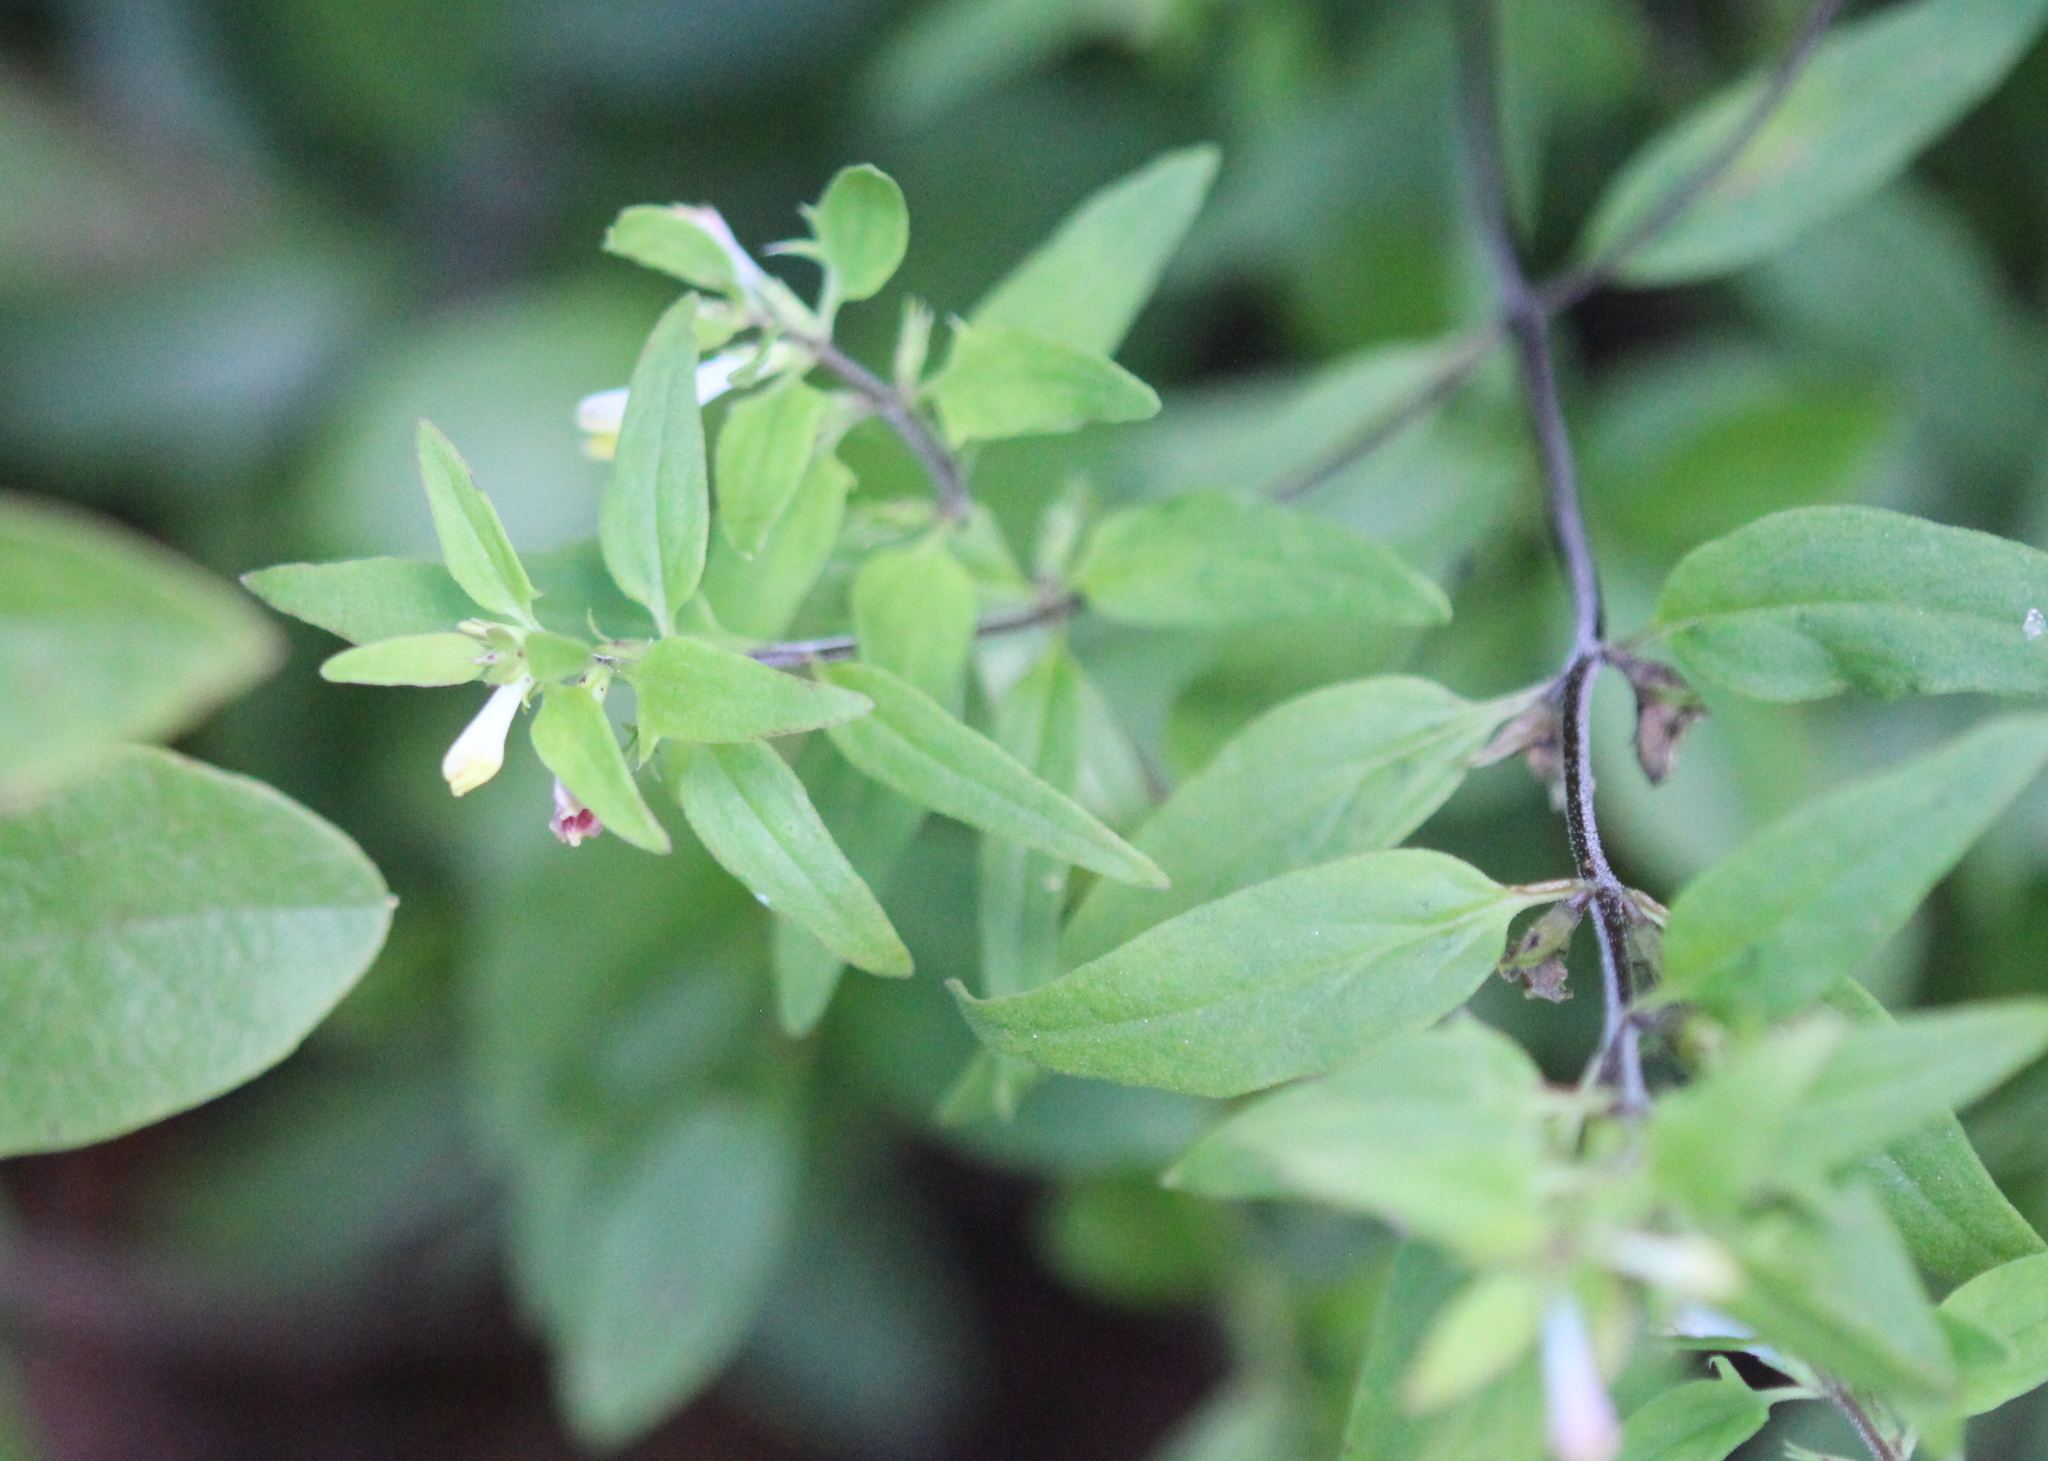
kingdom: Plantae
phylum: Tracheophyta
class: Magnoliopsida
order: Lamiales
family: Orobanchaceae
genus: Melampyrum
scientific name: Melampyrum lineare
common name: American cow-wheat
